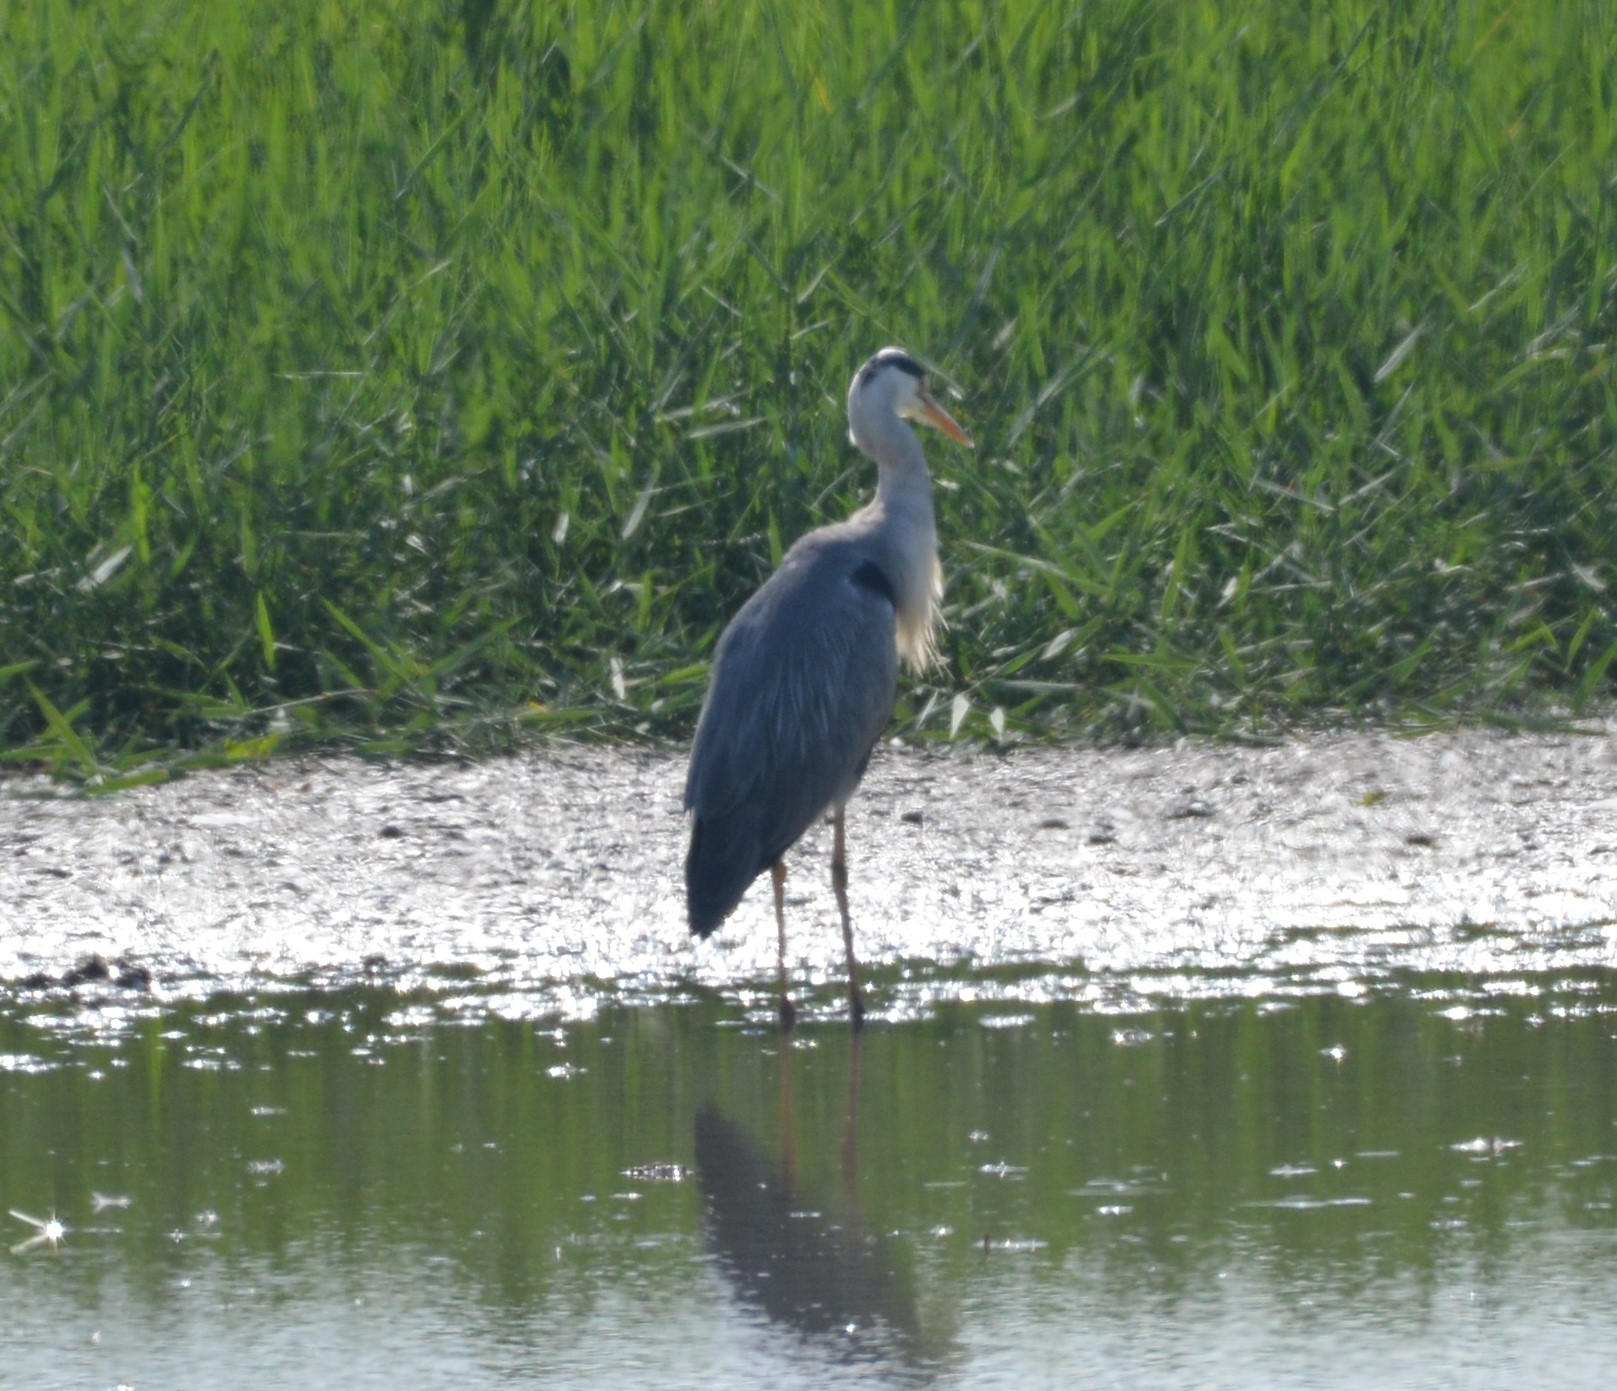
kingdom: Animalia
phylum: Chordata
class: Aves
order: Pelecaniformes
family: Ardeidae
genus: Ardea
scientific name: Ardea cinerea
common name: Grey heron
